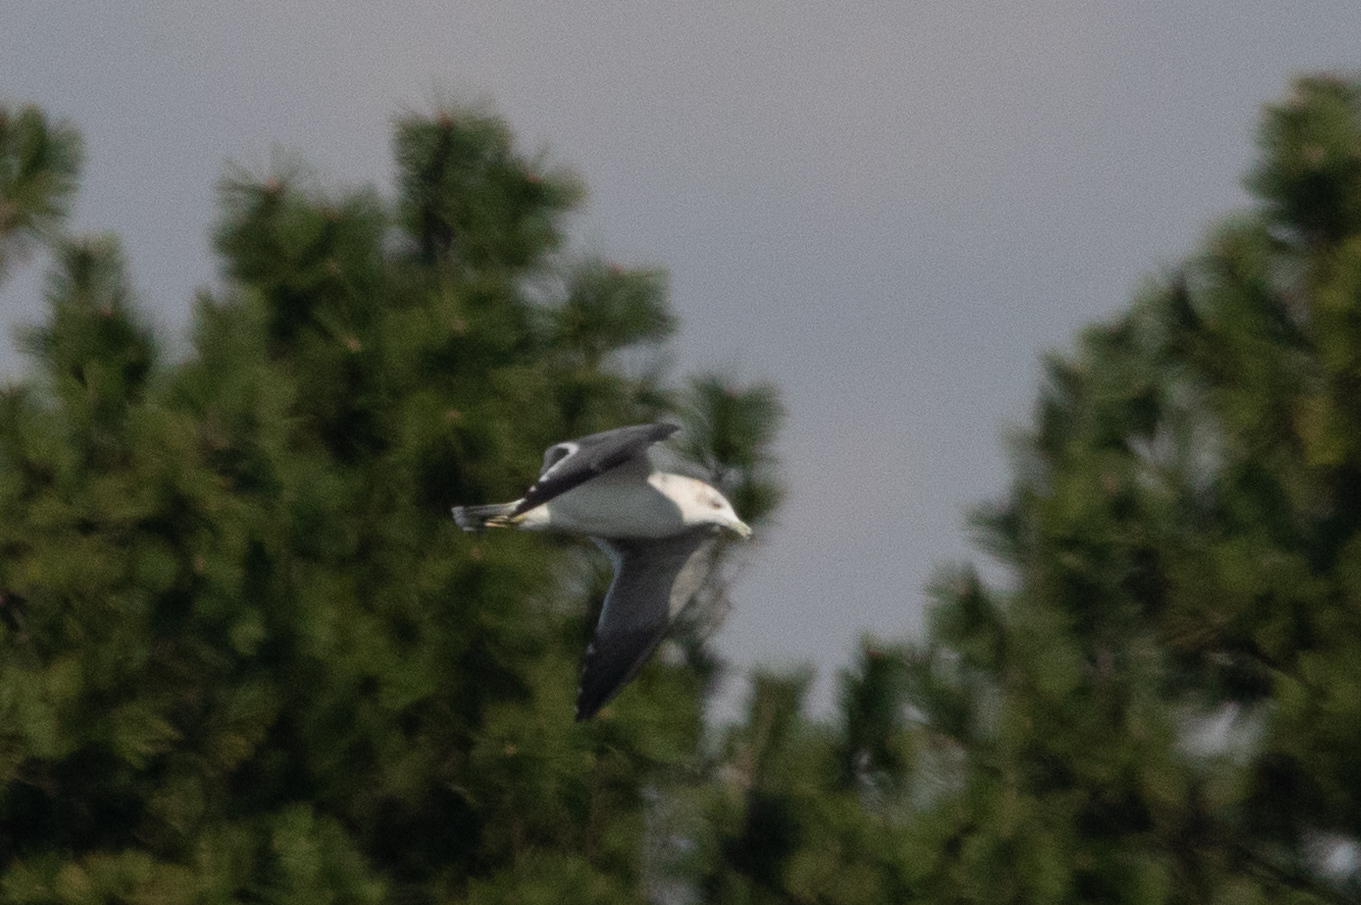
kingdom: Animalia
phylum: Chordata
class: Aves
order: Charadriiformes
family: Laridae
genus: Larus
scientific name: Larus crassirostris
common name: Black-tailed gull
